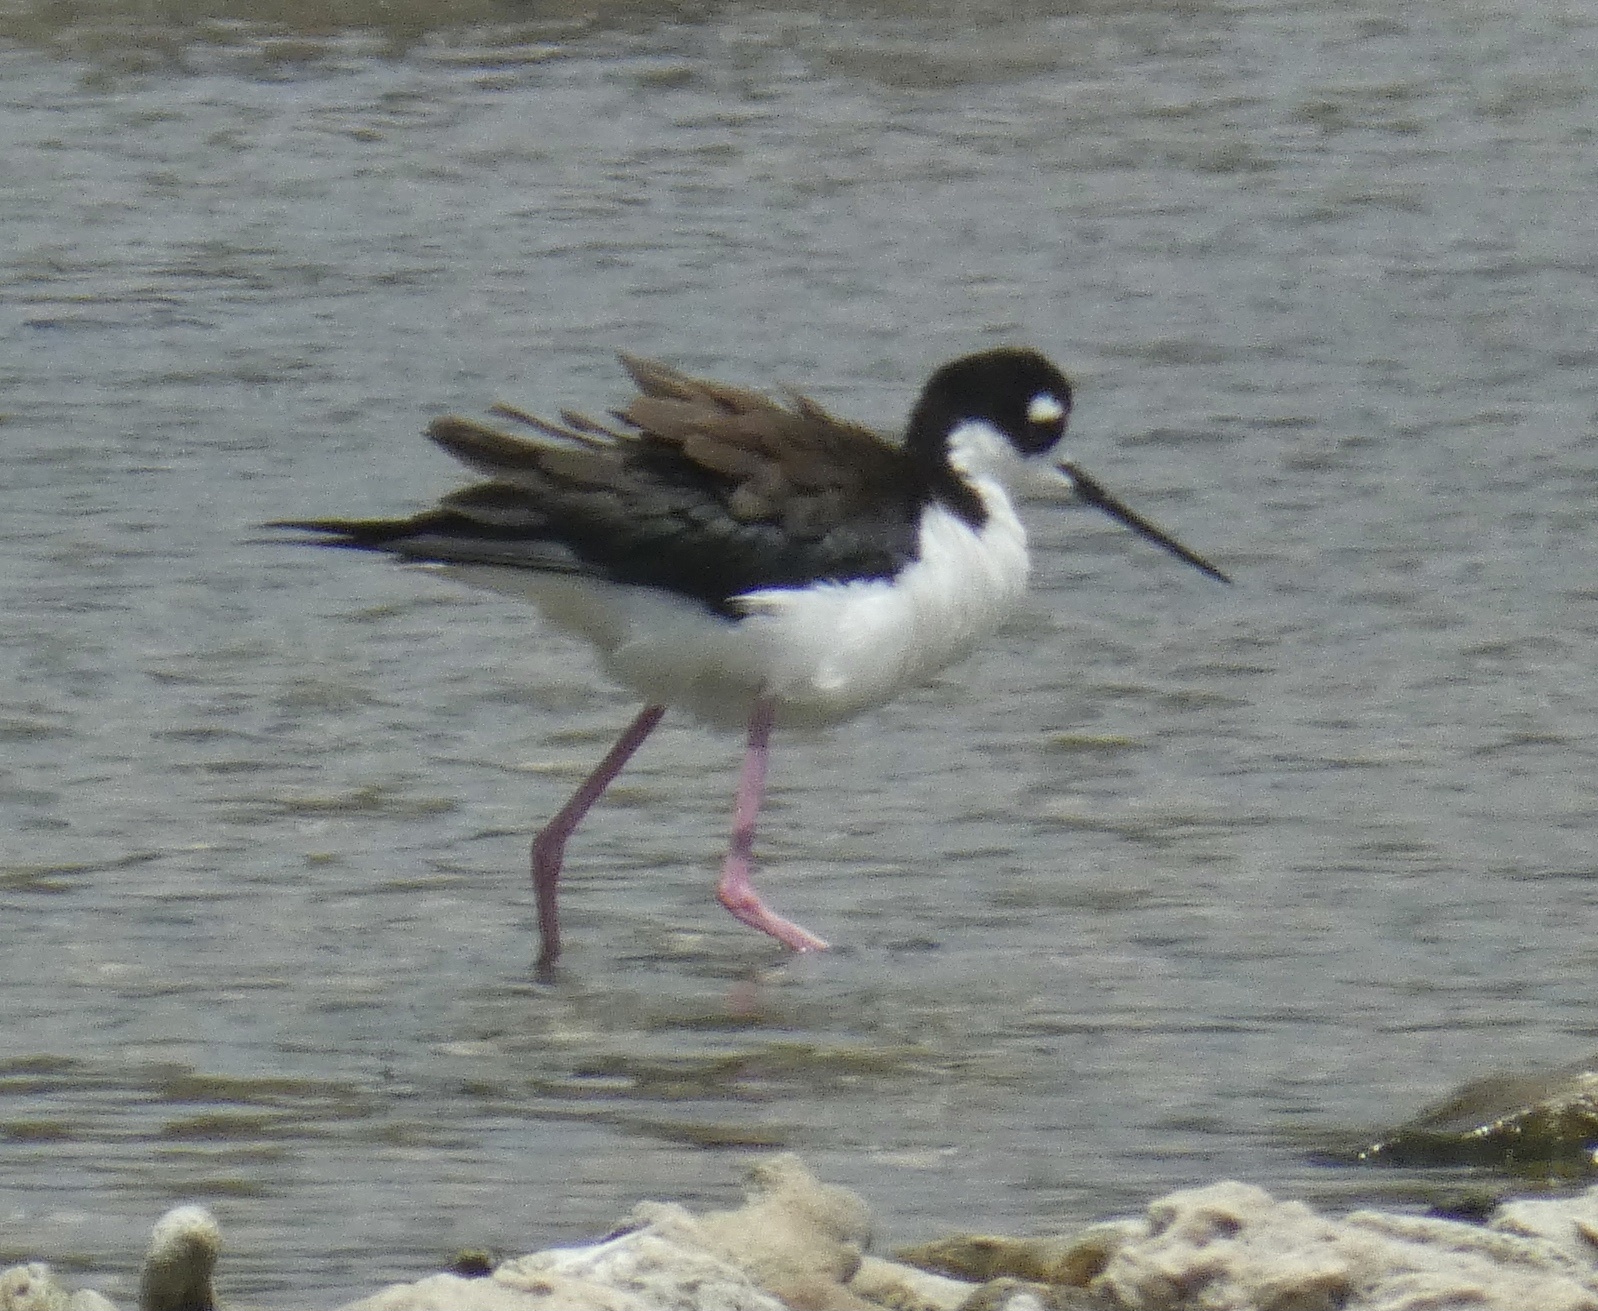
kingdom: Animalia
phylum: Chordata
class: Aves
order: Charadriiformes
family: Recurvirostridae
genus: Himantopus
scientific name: Himantopus mexicanus
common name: Black-necked stilt
